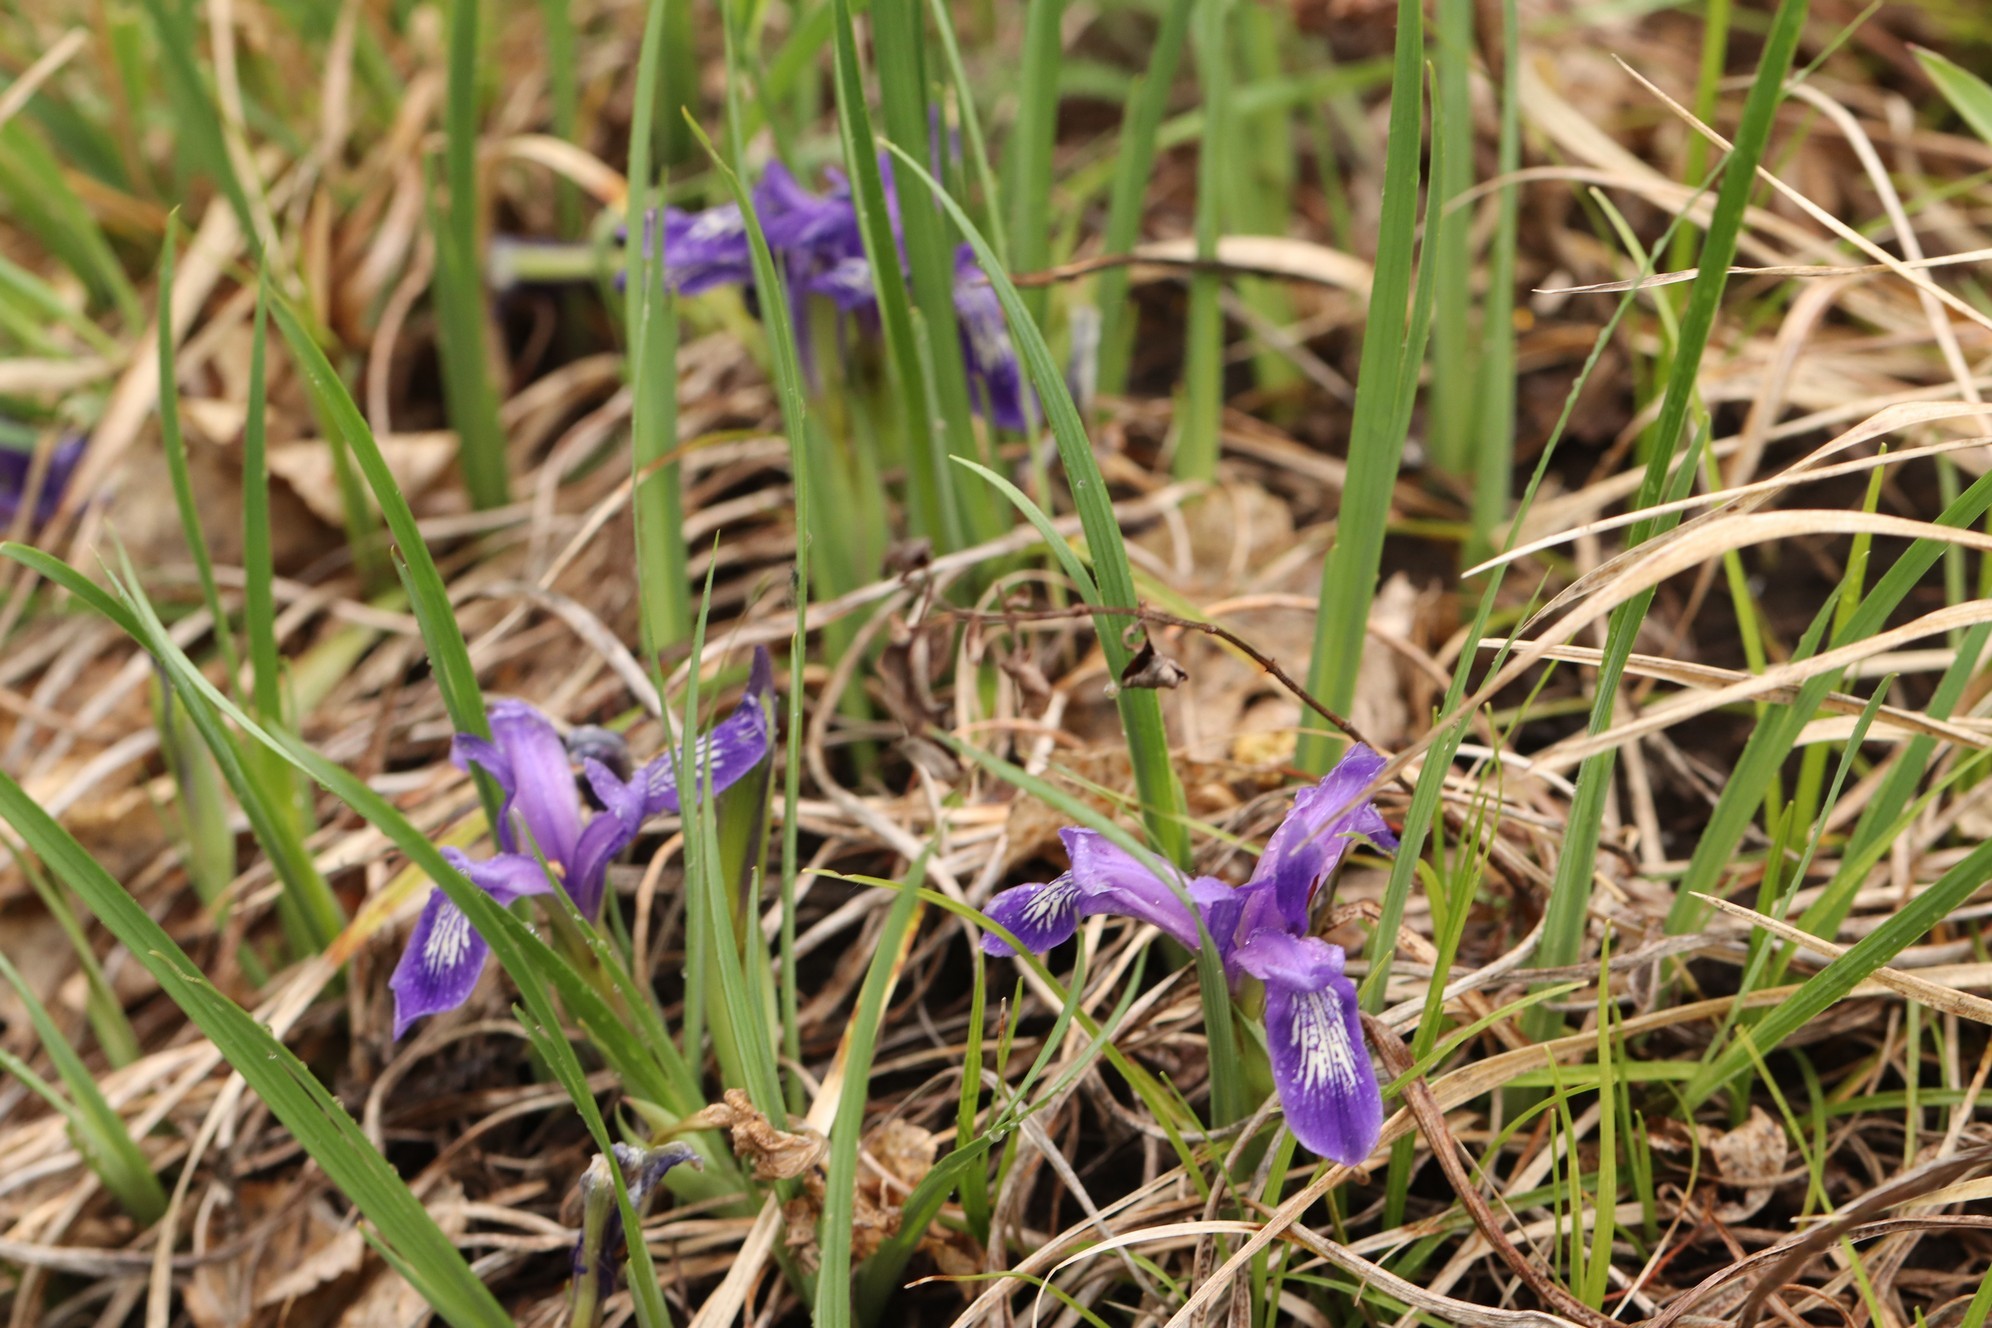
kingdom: Plantae
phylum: Tracheophyta
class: Liliopsida
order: Asparagales
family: Iridaceae
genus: Iris
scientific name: Iris ruthenica
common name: Purple-bract iris
